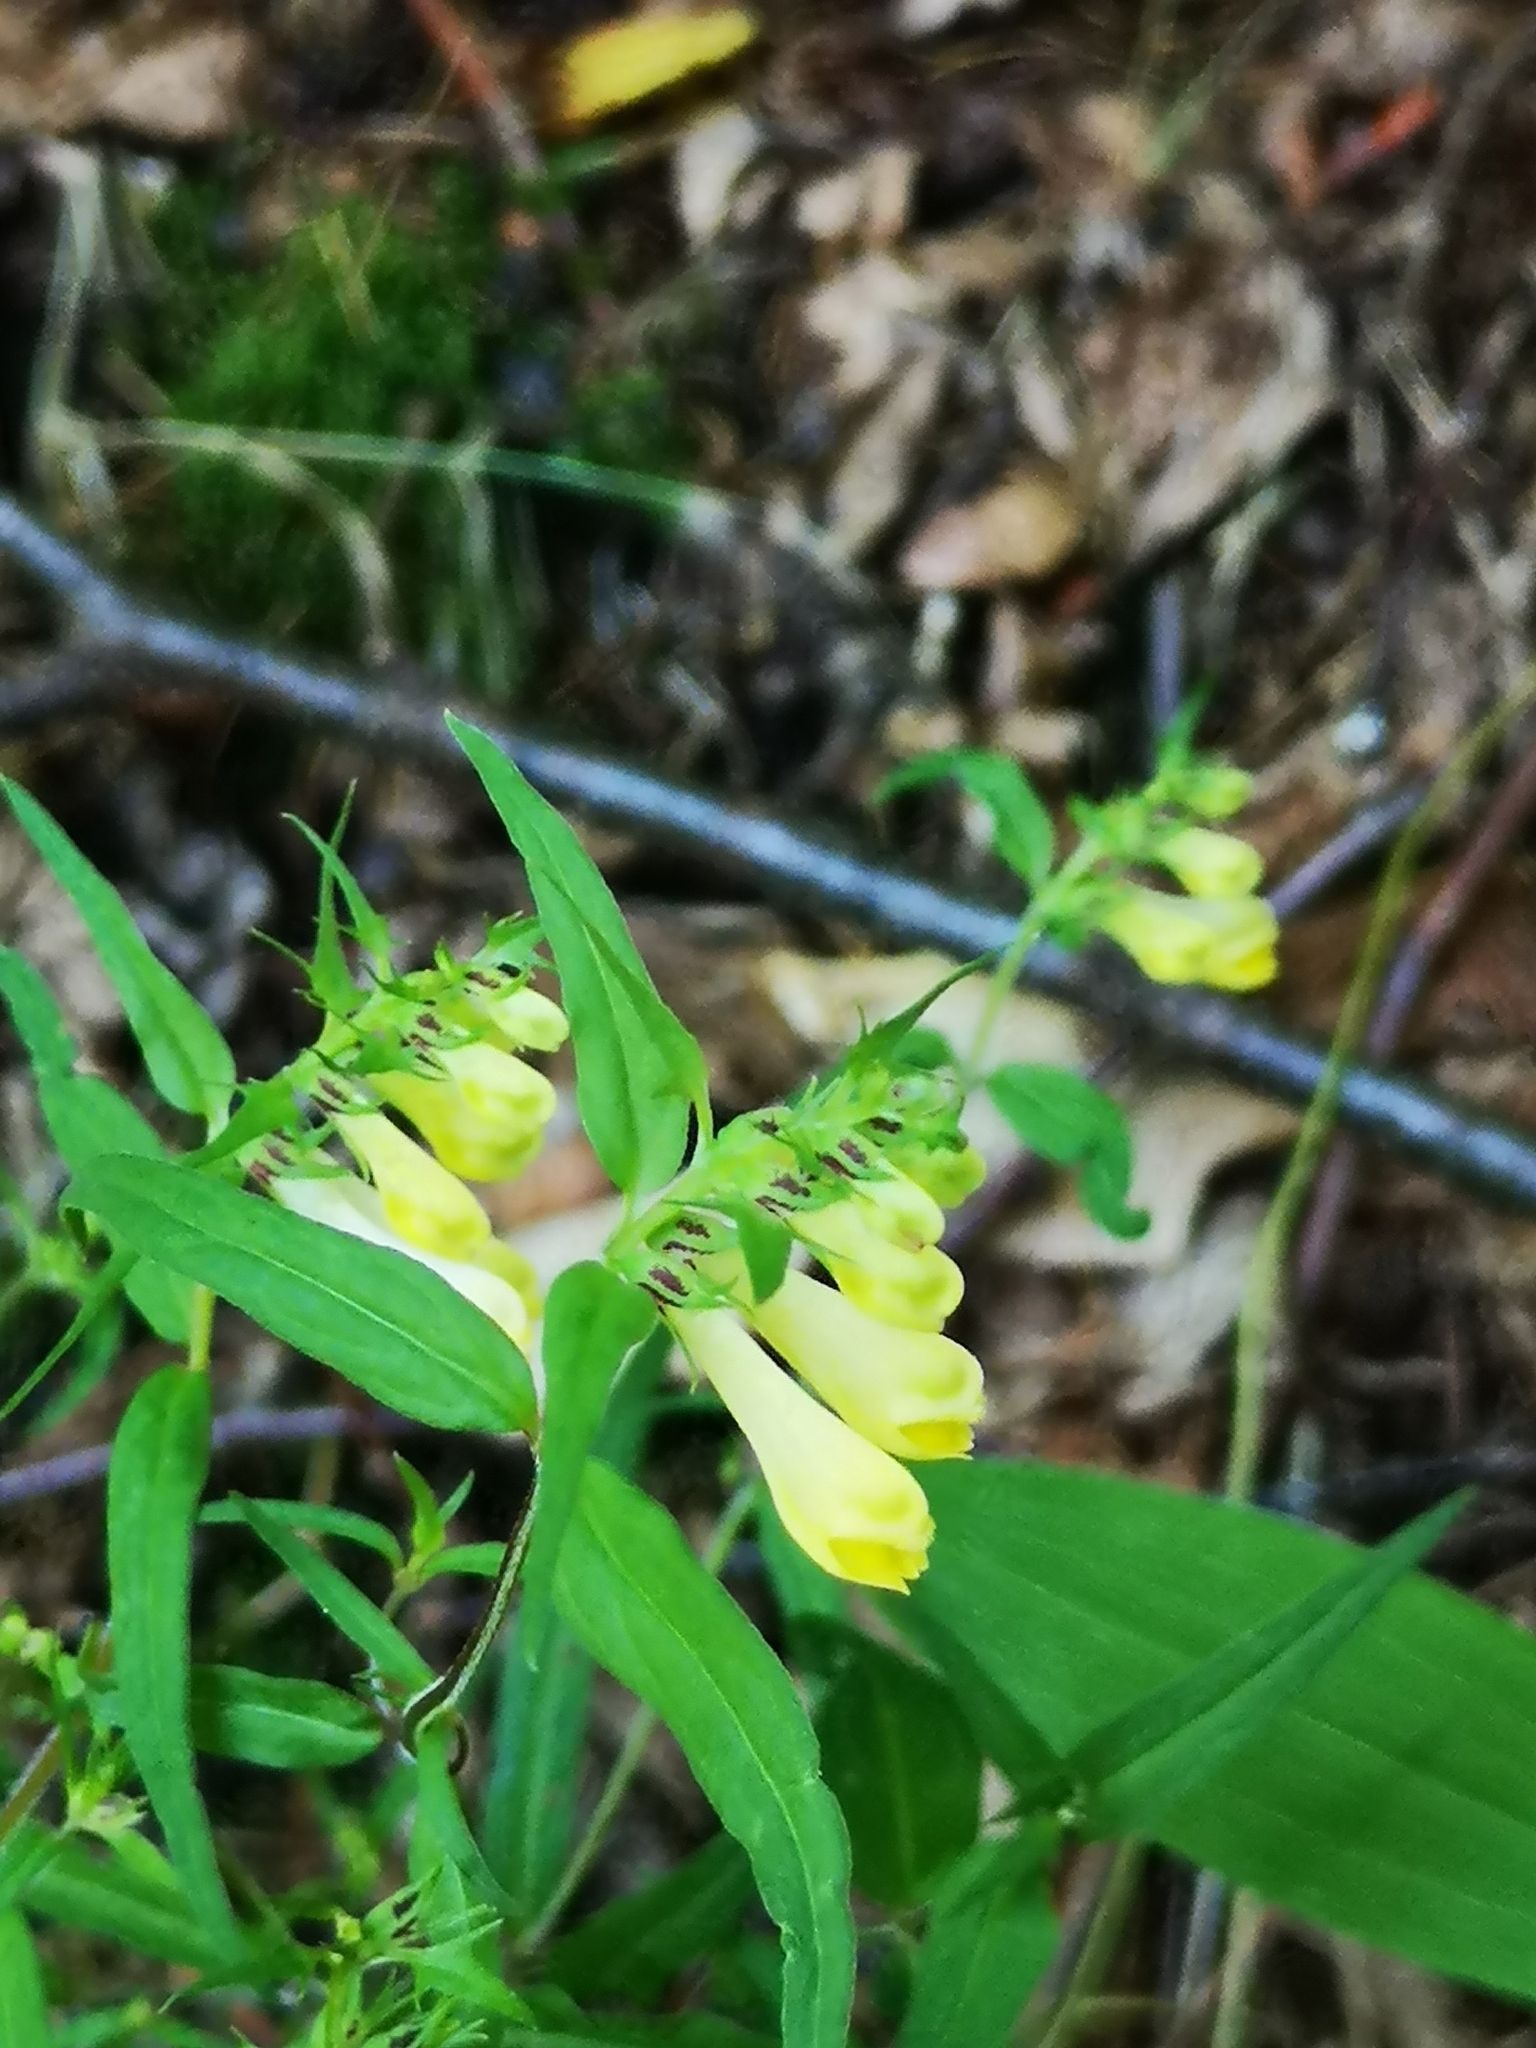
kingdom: Plantae
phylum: Tracheophyta
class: Magnoliopsida
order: Lamiales
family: Orobanchaceae
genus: Melampyrum
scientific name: Melampyrum pratense
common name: Common cow-wheat
